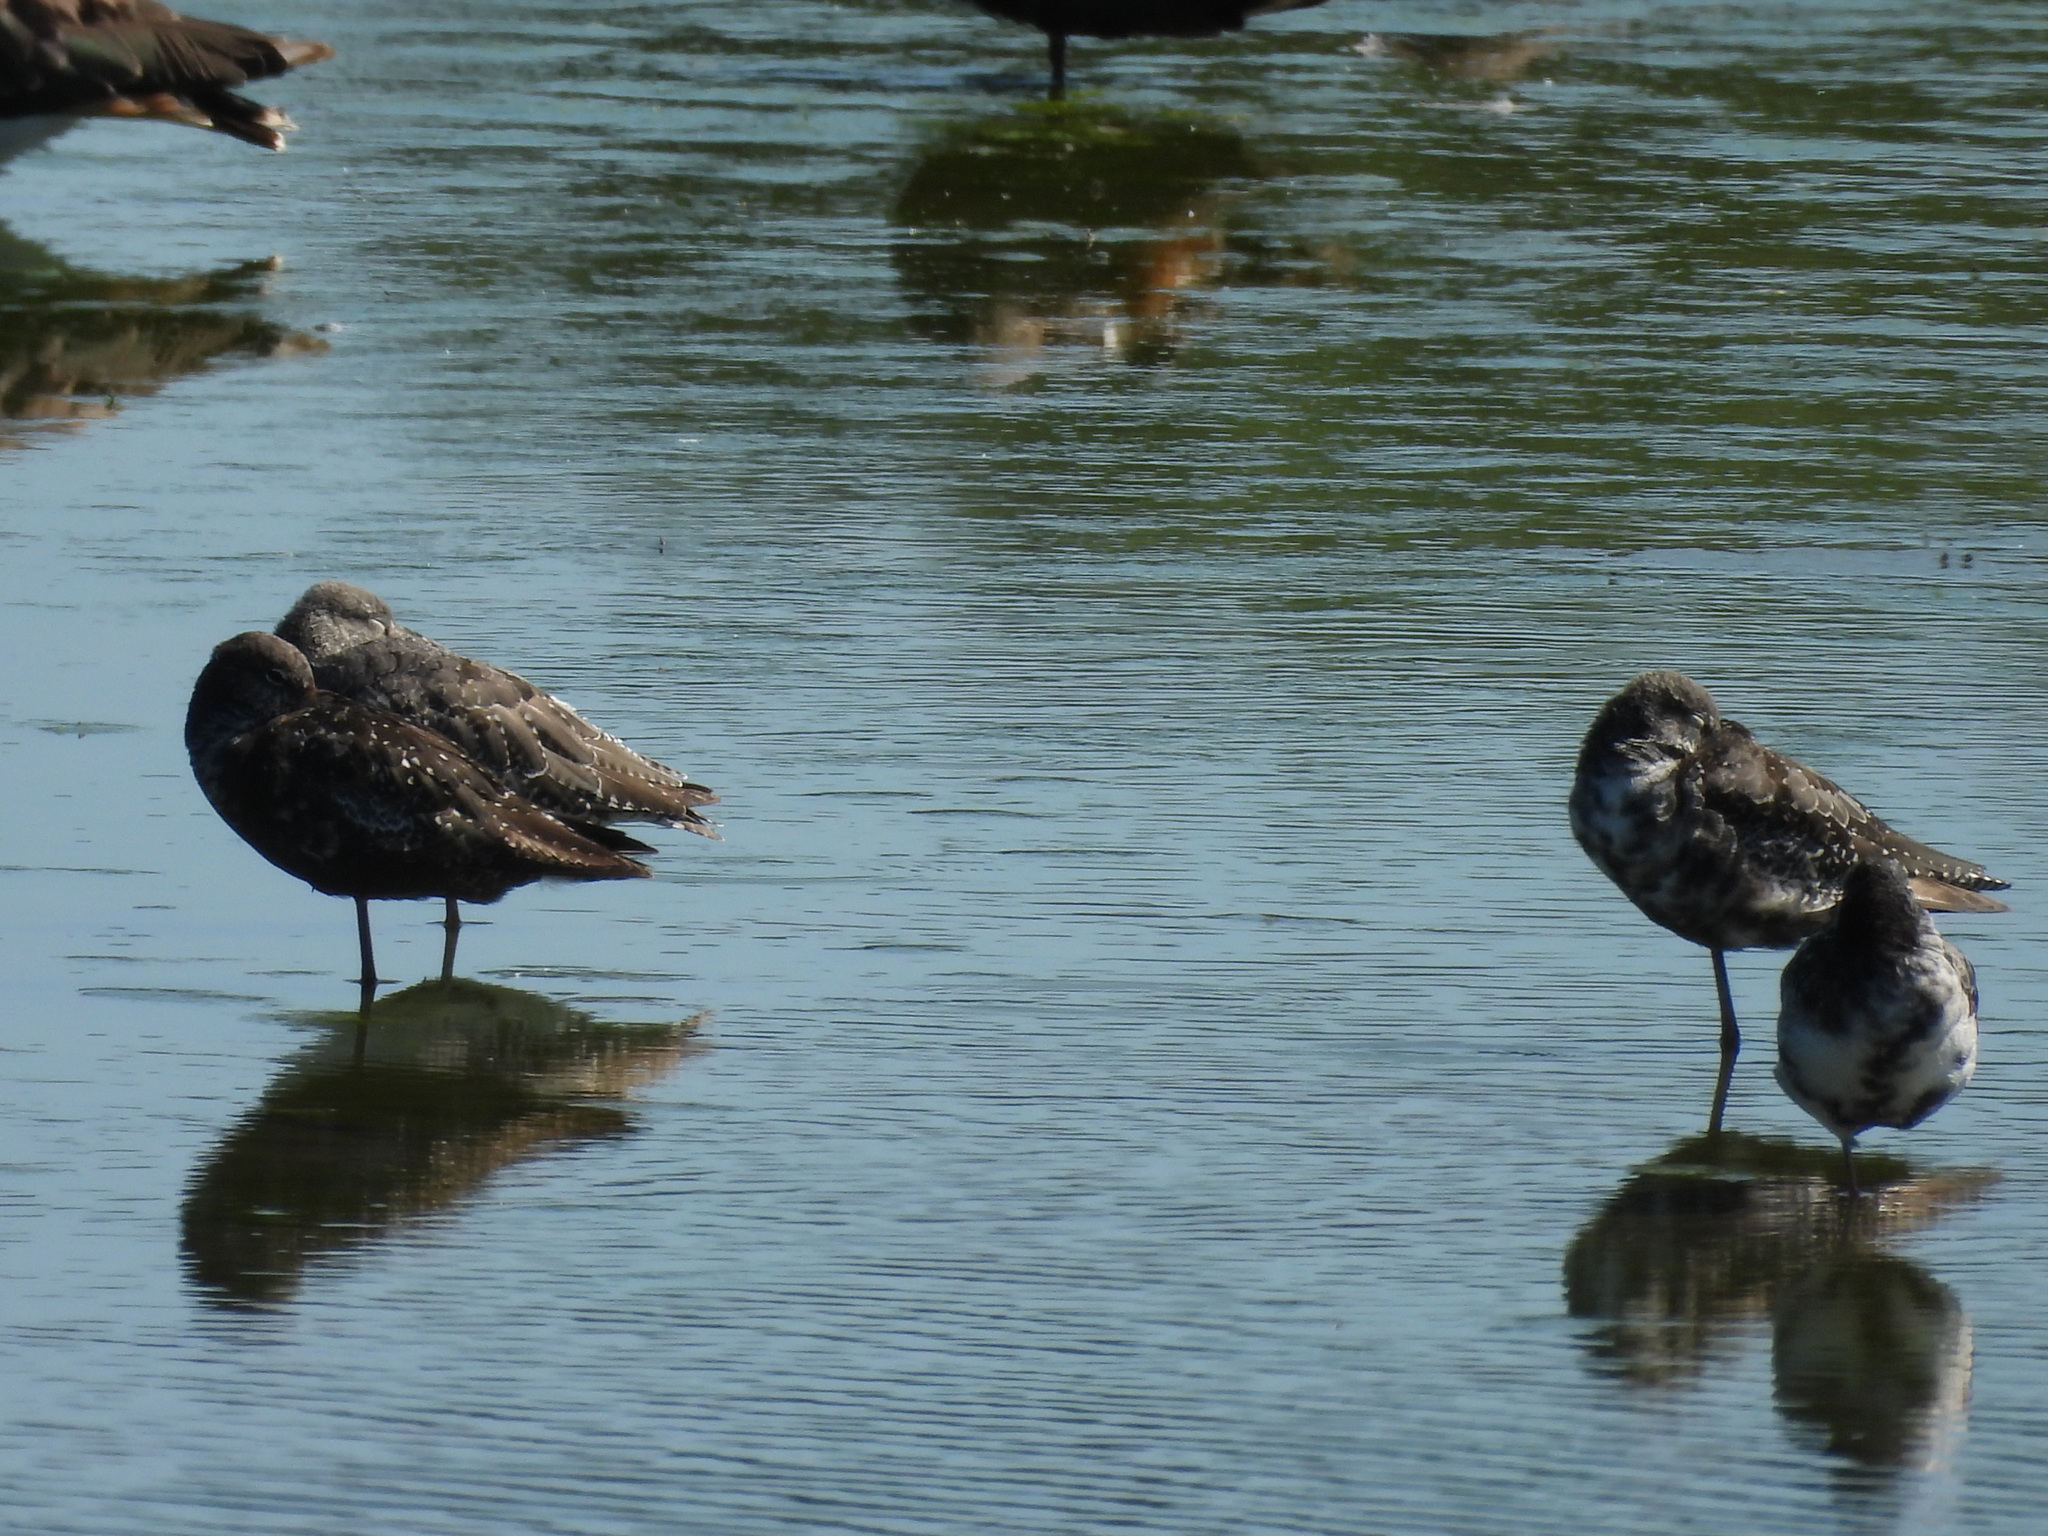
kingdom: Animalia
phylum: Chordata
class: Aves
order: Charadriiformes
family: Scolopacidae
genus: Tringa
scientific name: Tringa erythropus
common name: Spotted redshank
